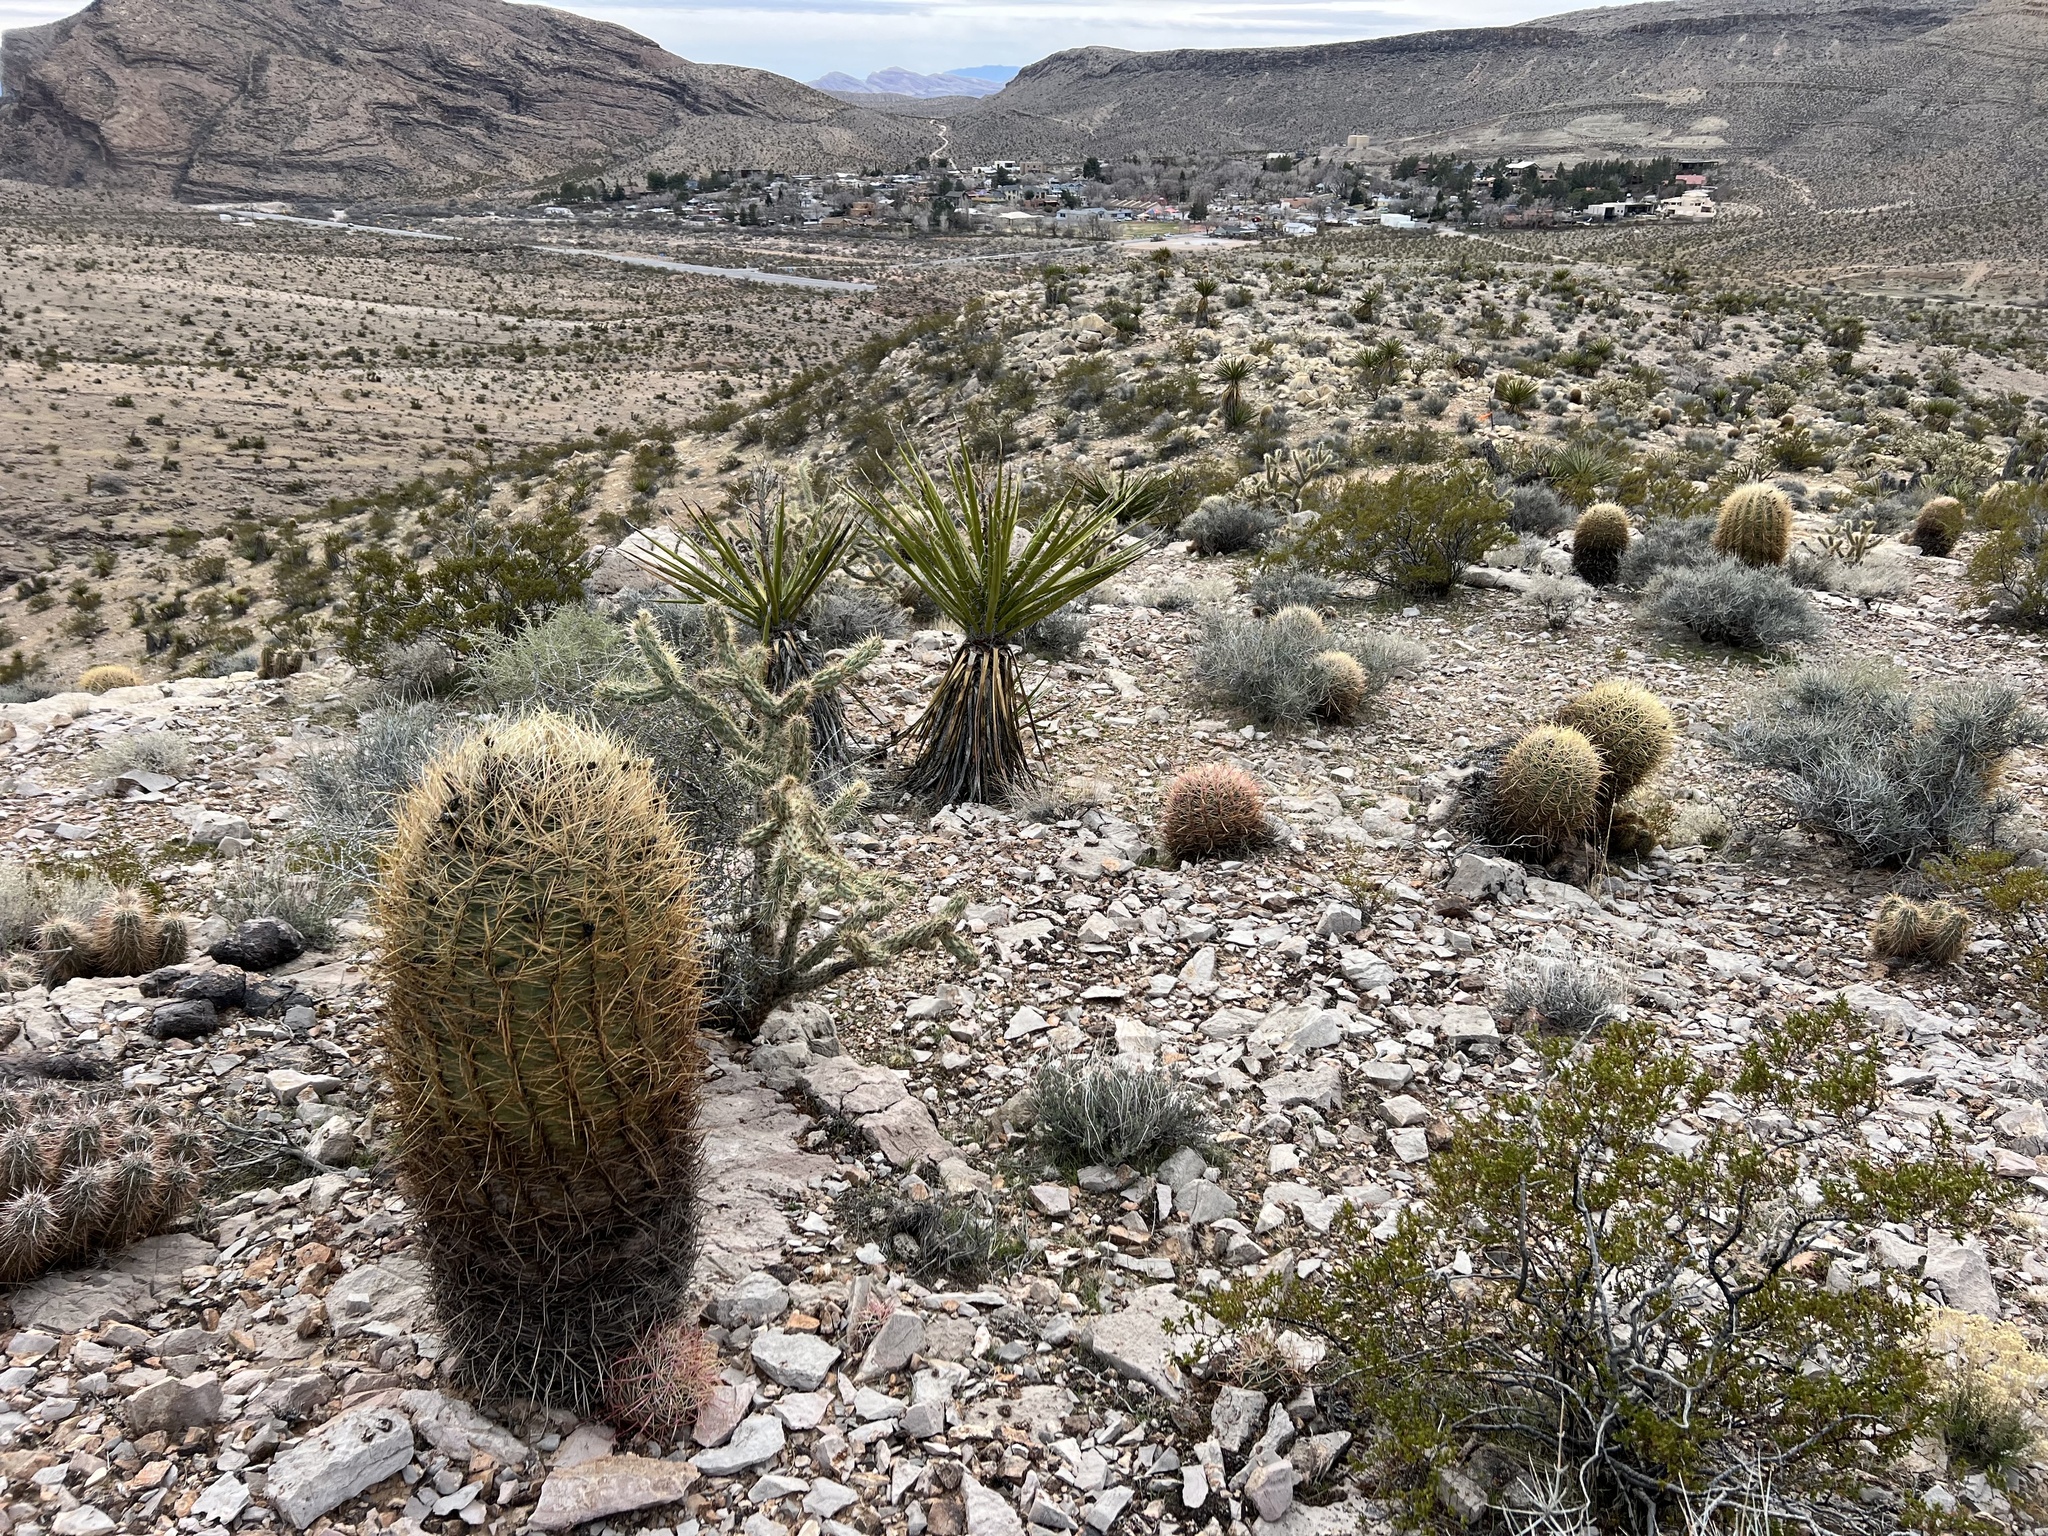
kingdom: Plantae
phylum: Tracheophyta
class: Magnoliopsida
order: Caryophyllales
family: Cactaceae
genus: Ferocactus
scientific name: Ferocactus cylindraceus
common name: California barrel cactus
